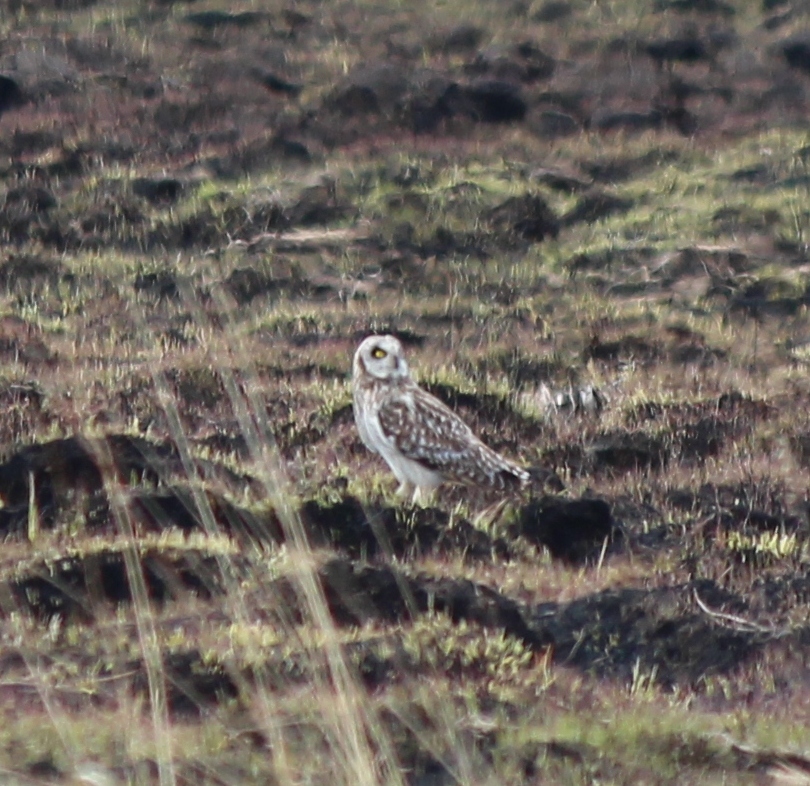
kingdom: Animalia
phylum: Chordata
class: Aves
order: Strigiformes
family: Strigidae
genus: Asio
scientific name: Asio flammeus
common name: Short-eared owl
